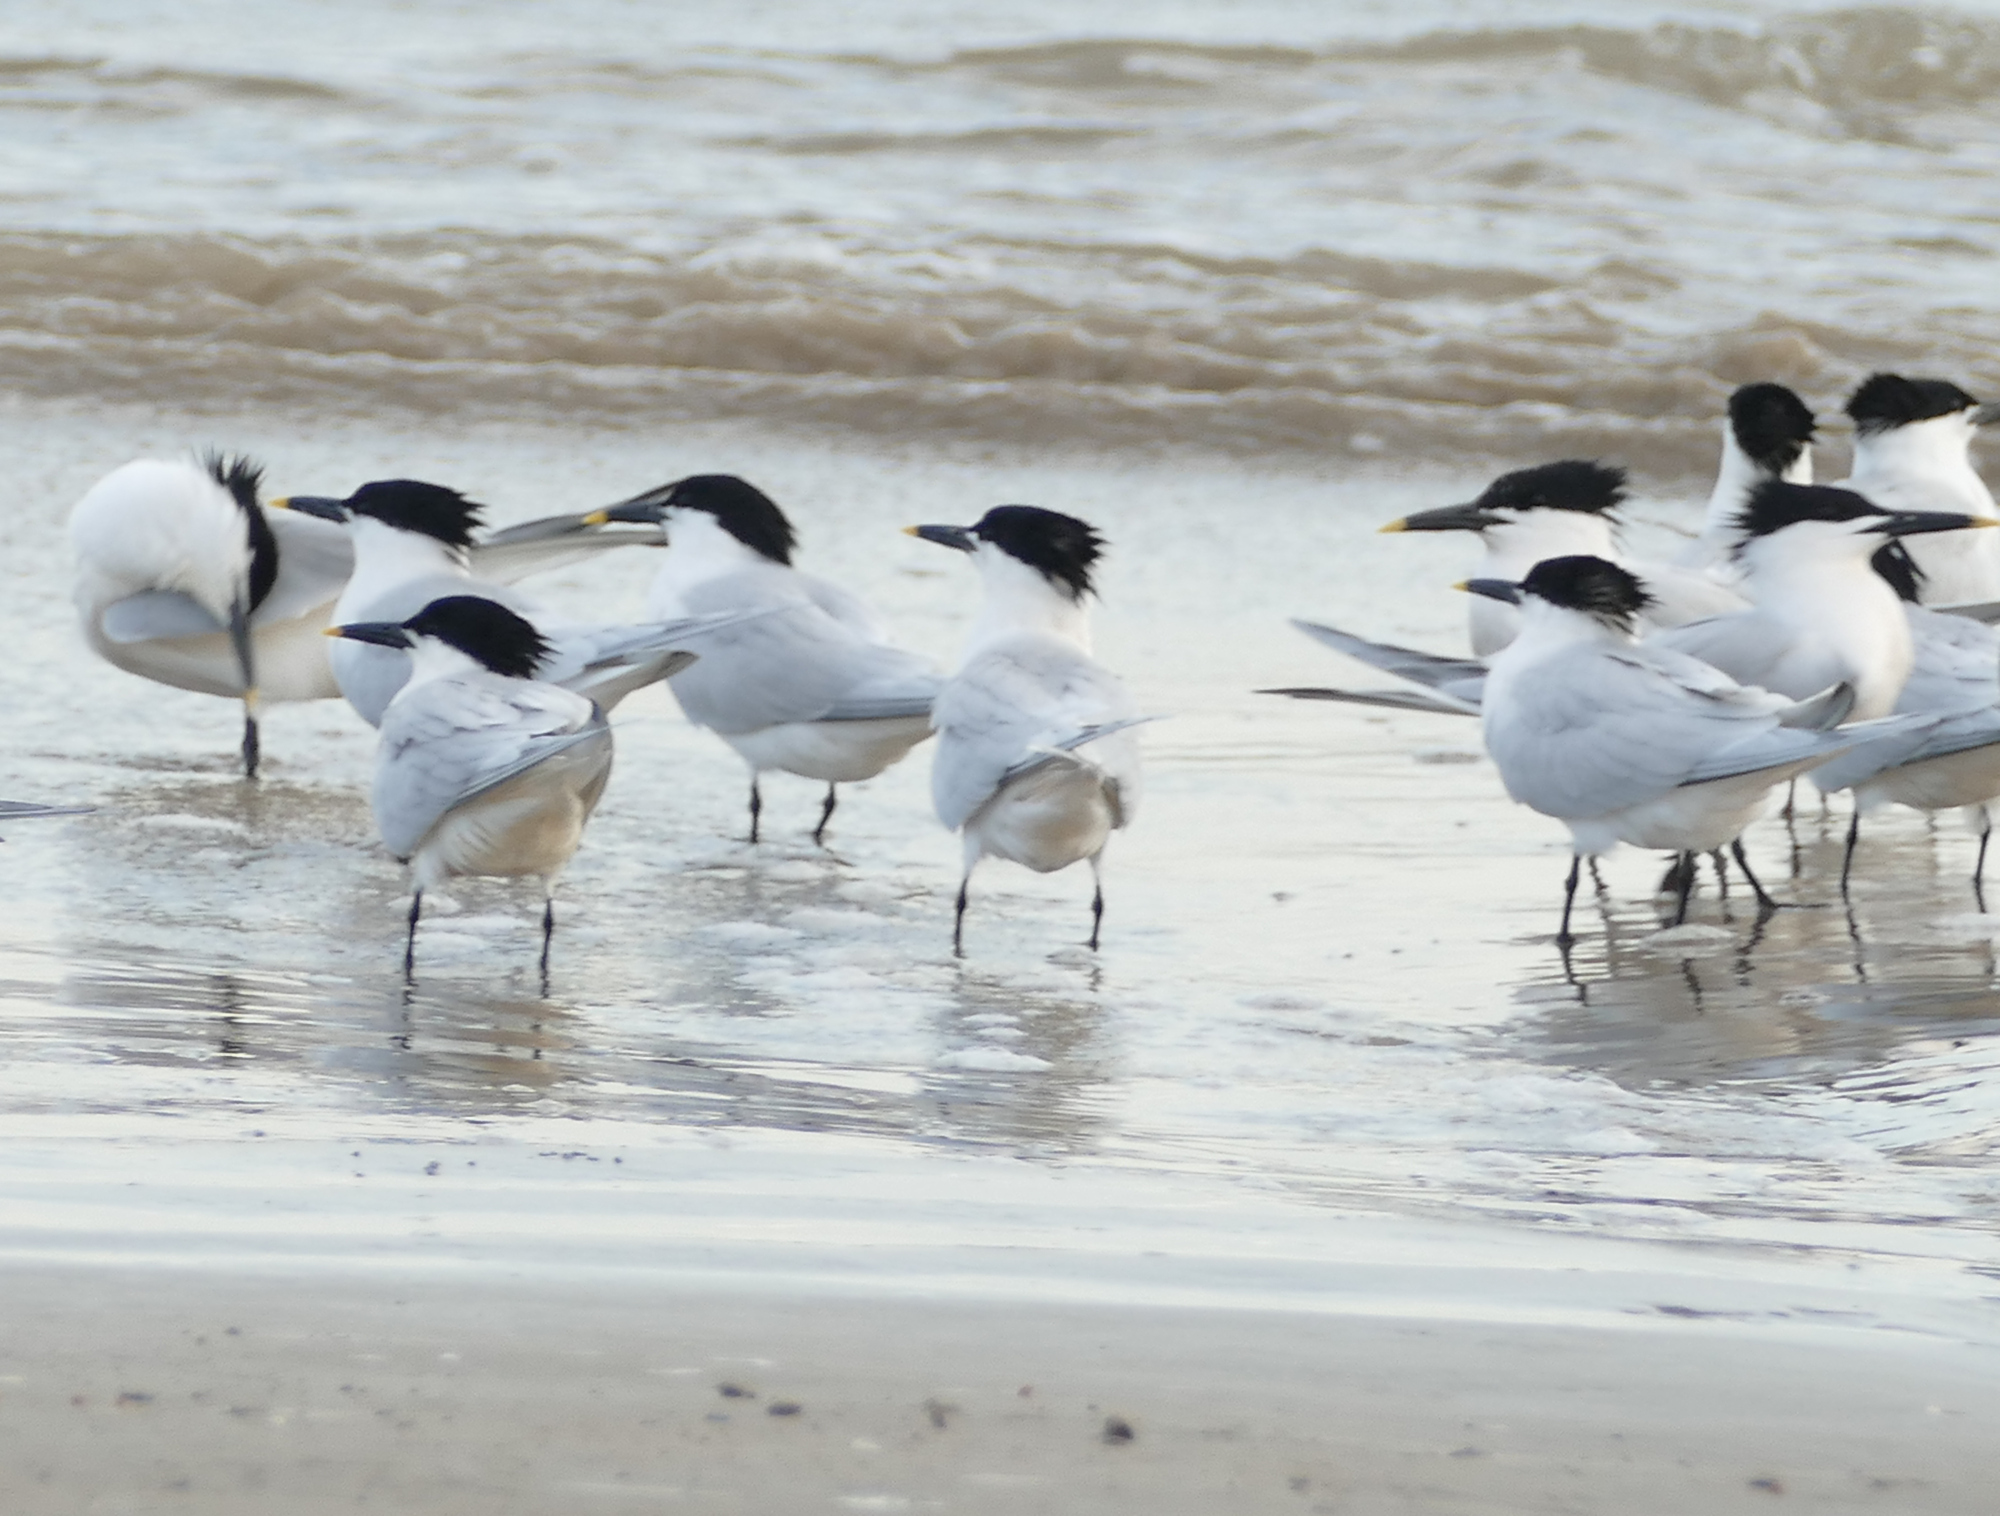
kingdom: Animalia
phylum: Chordata
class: Aves
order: Charadriiformes
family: Laridae
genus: Thalasseus
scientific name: Thalasseus sandvicensis
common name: Sandwich tern
